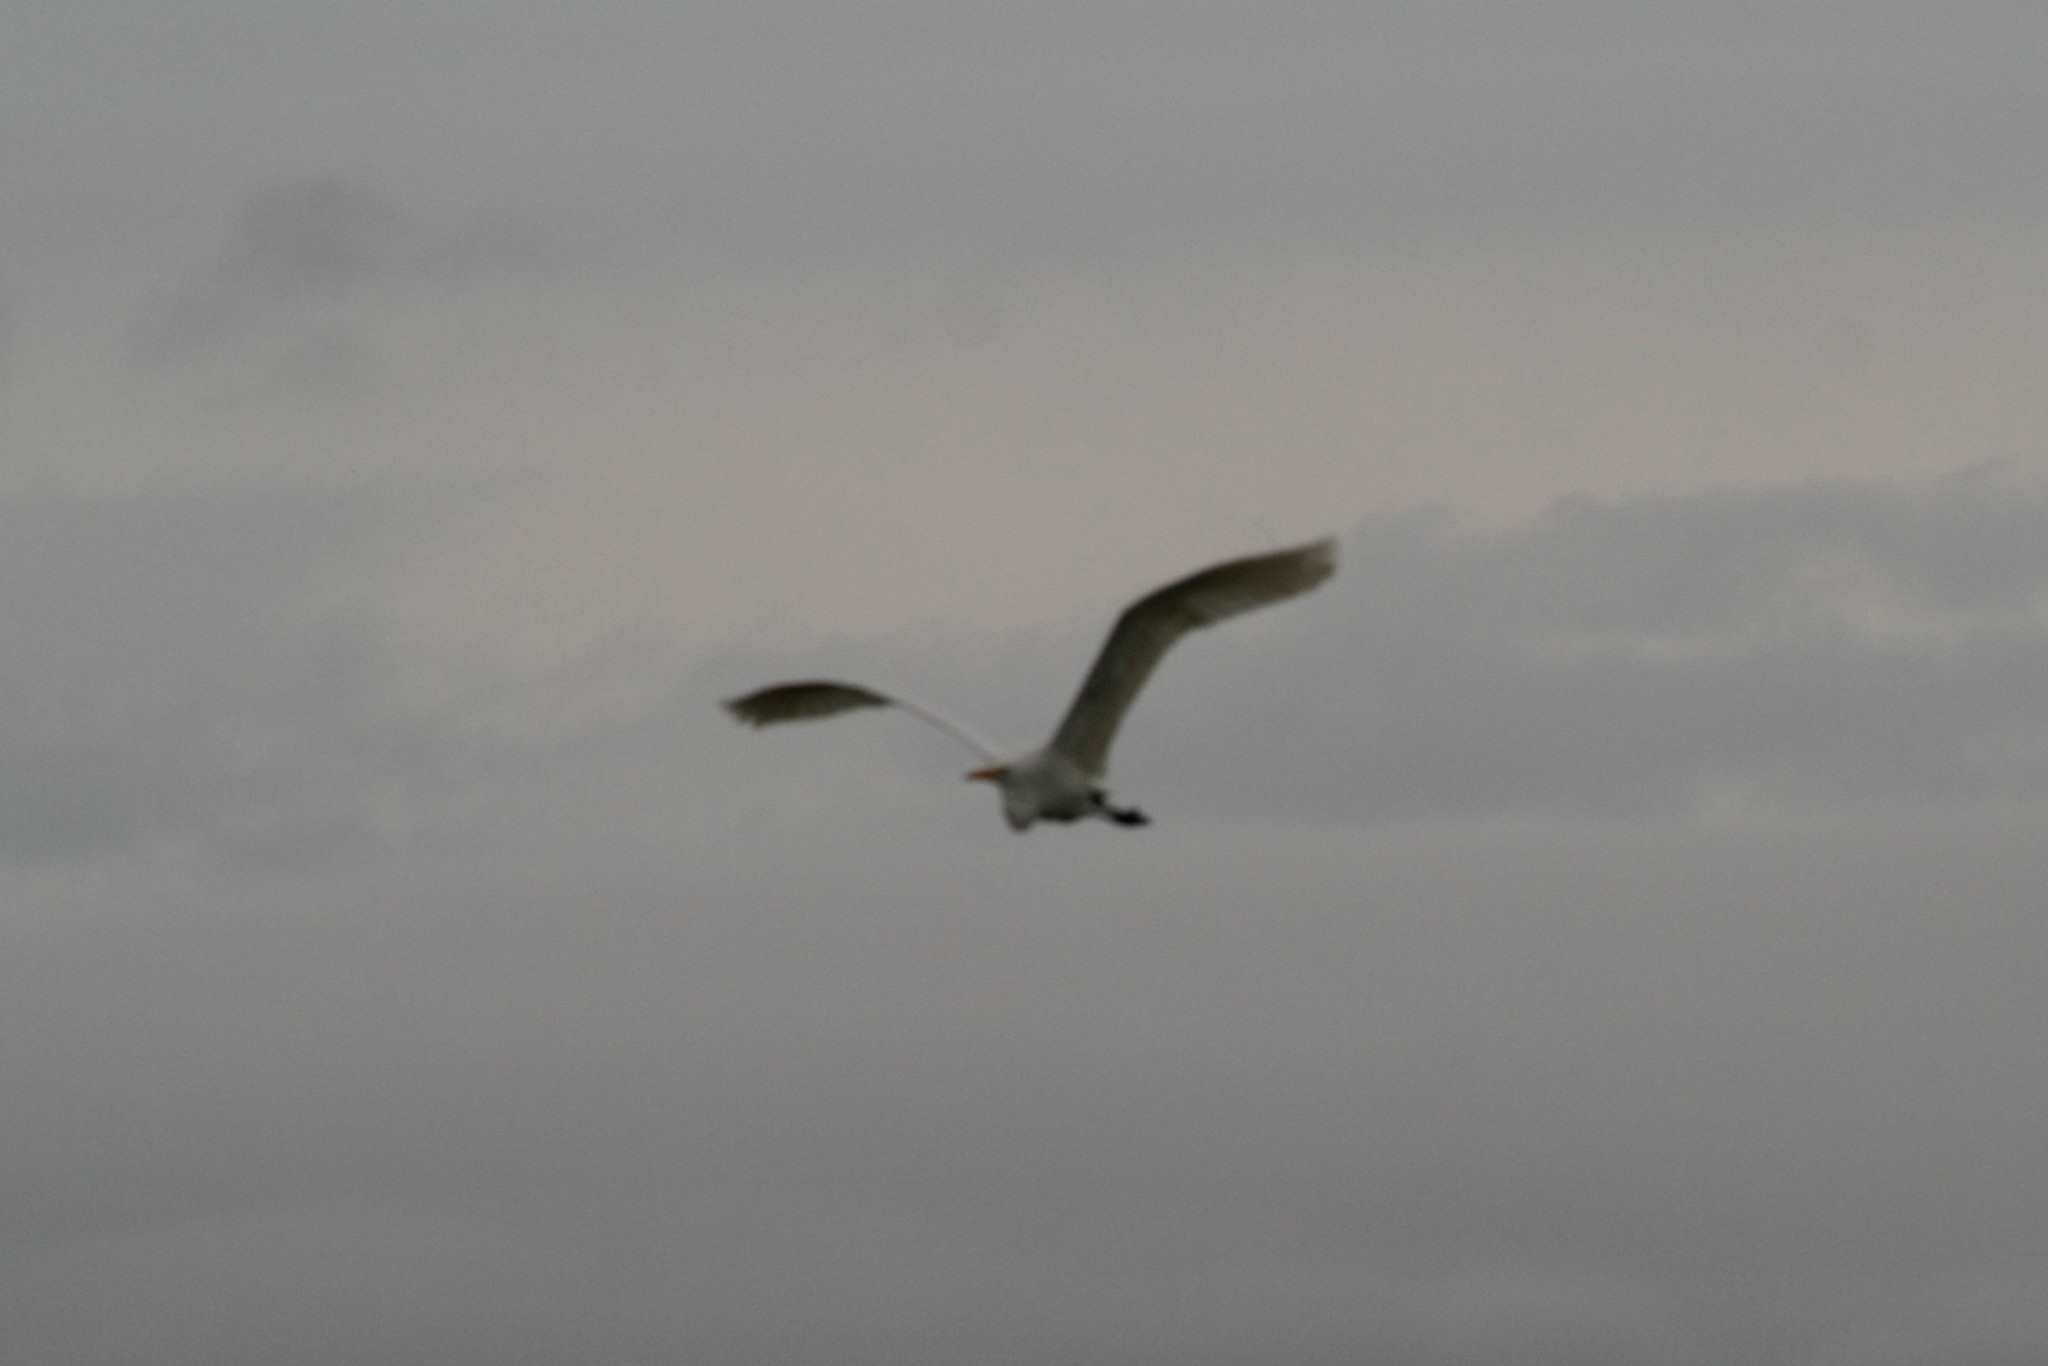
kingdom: Animalia
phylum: Chordata
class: Aves
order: Pelecaniformes
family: Ardeidae
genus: Ardea
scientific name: Ardea alba
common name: Great egret
